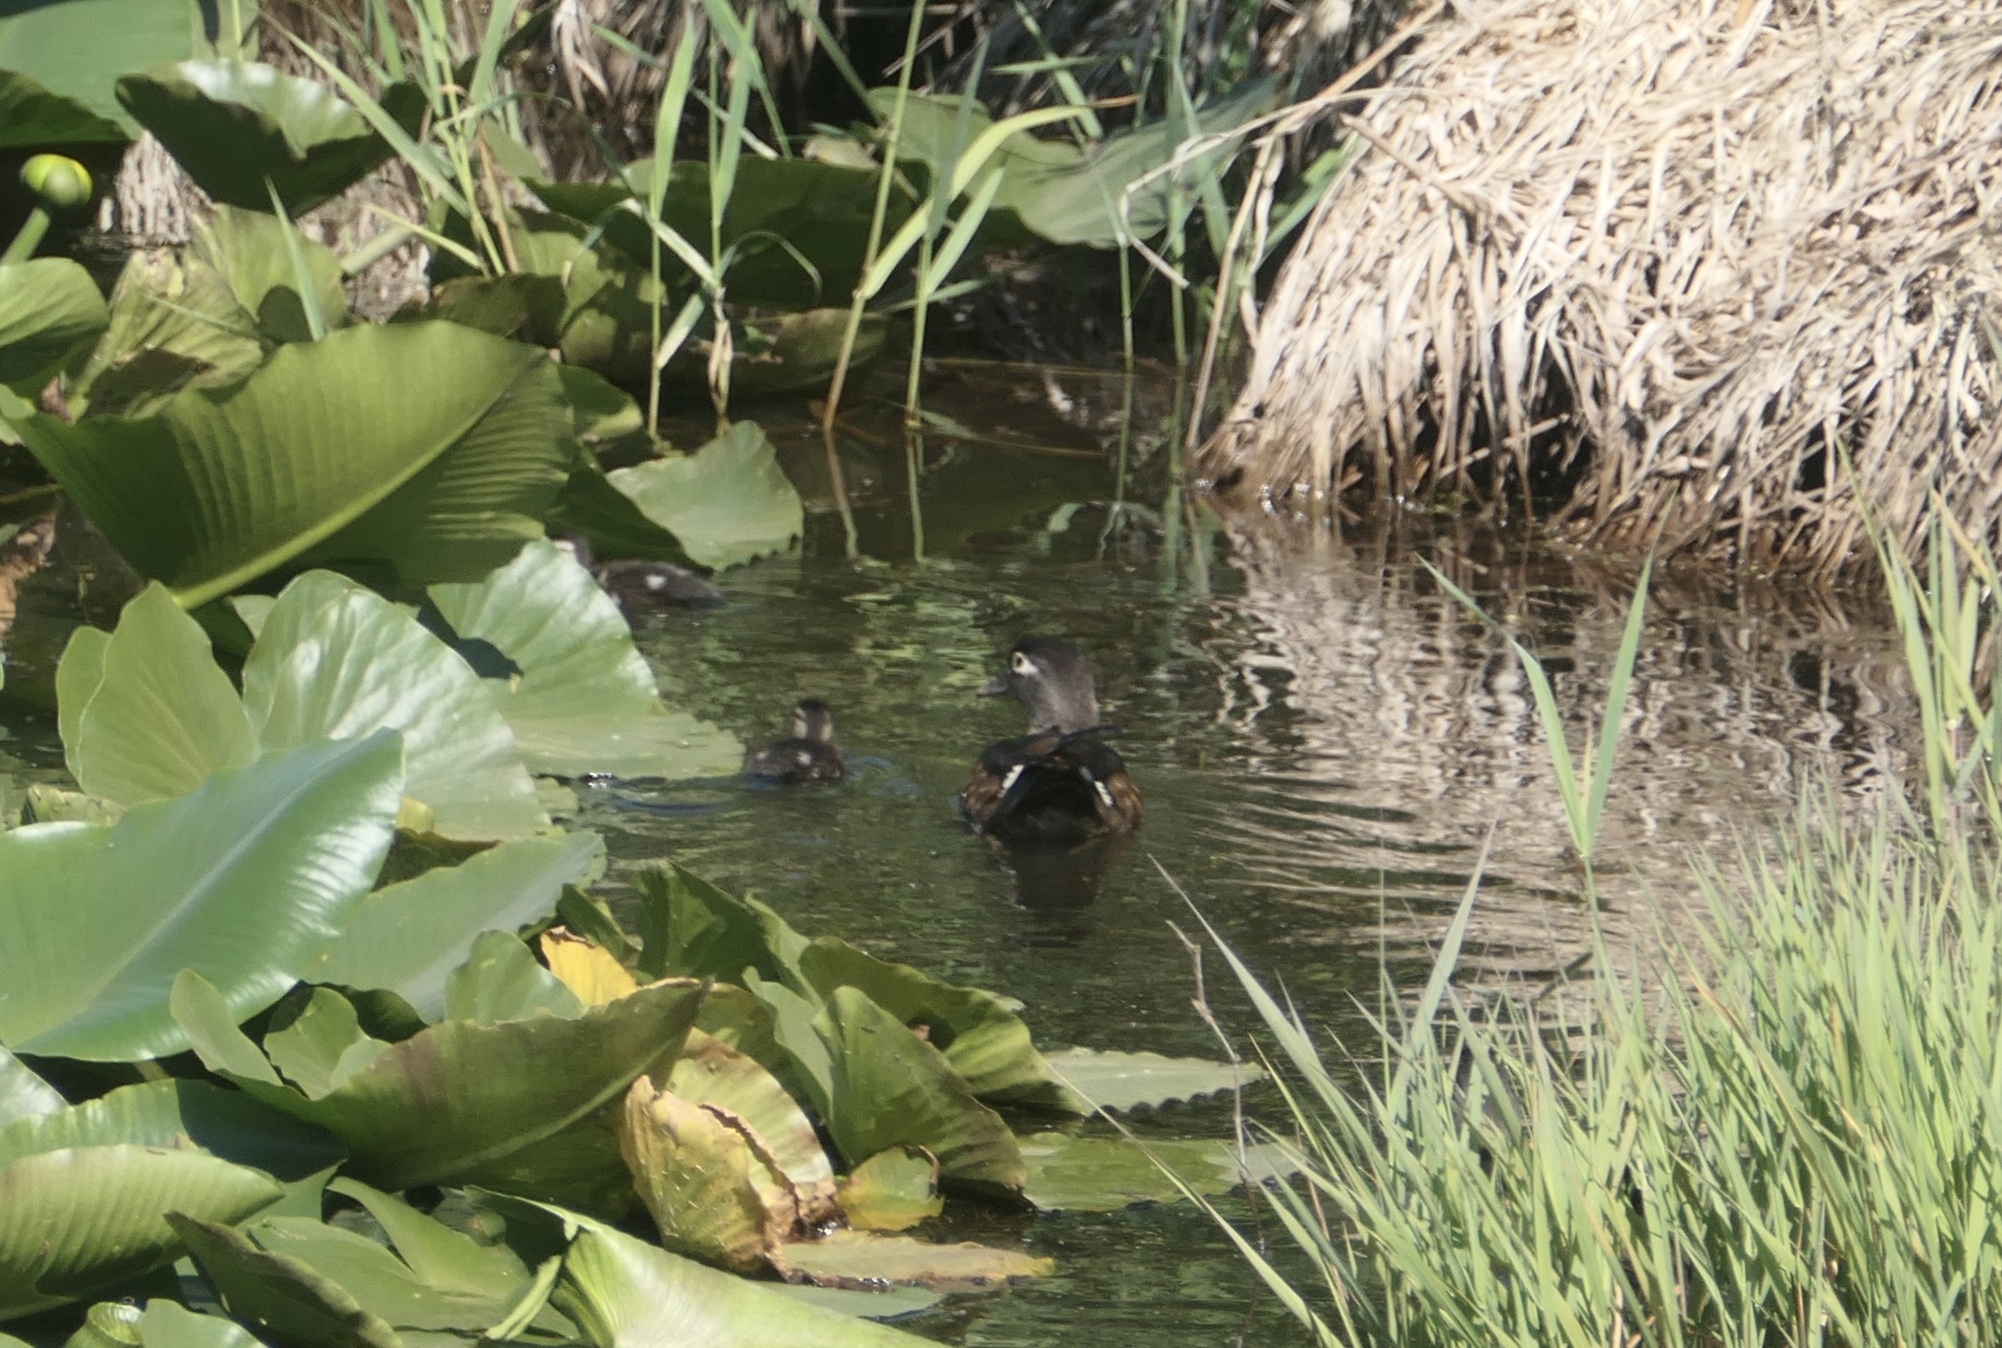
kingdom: Animalia
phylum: Chordata
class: Aves
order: Anseriformes
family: Anatidae
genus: Aix
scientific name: Aix sponsa
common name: Wood duck
